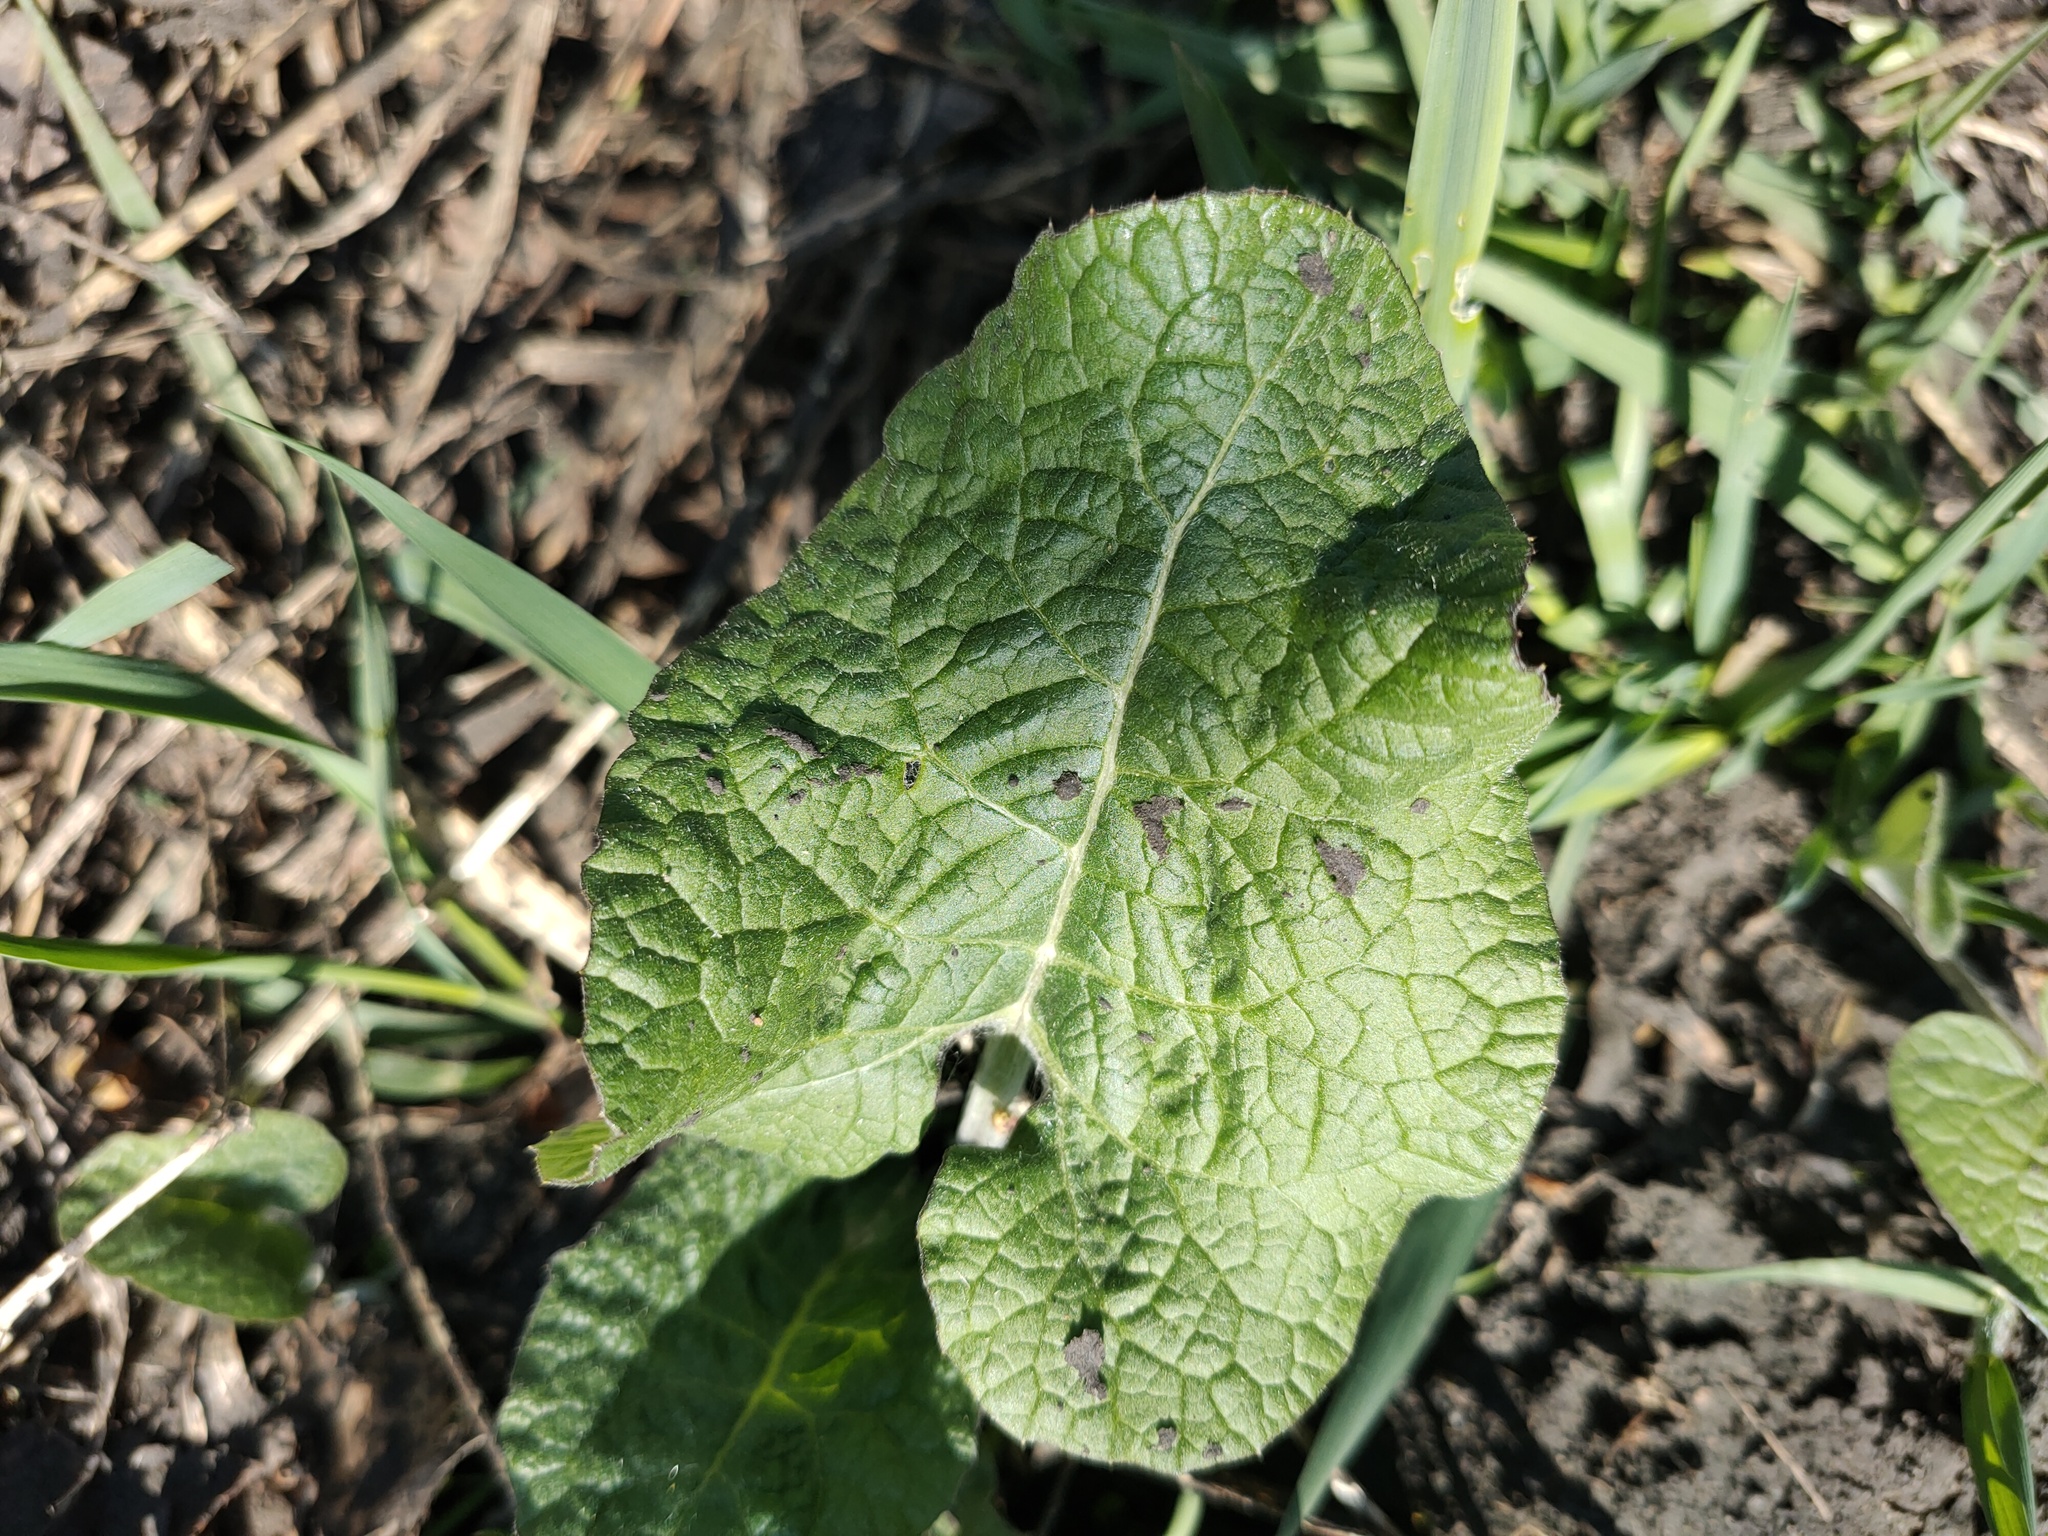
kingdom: Plantae
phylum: Tracheophyta
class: Magnoliopsida
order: Asterales
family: Asteraceae
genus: Arctium
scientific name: Arctium tomentosum
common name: Woolly burdock
